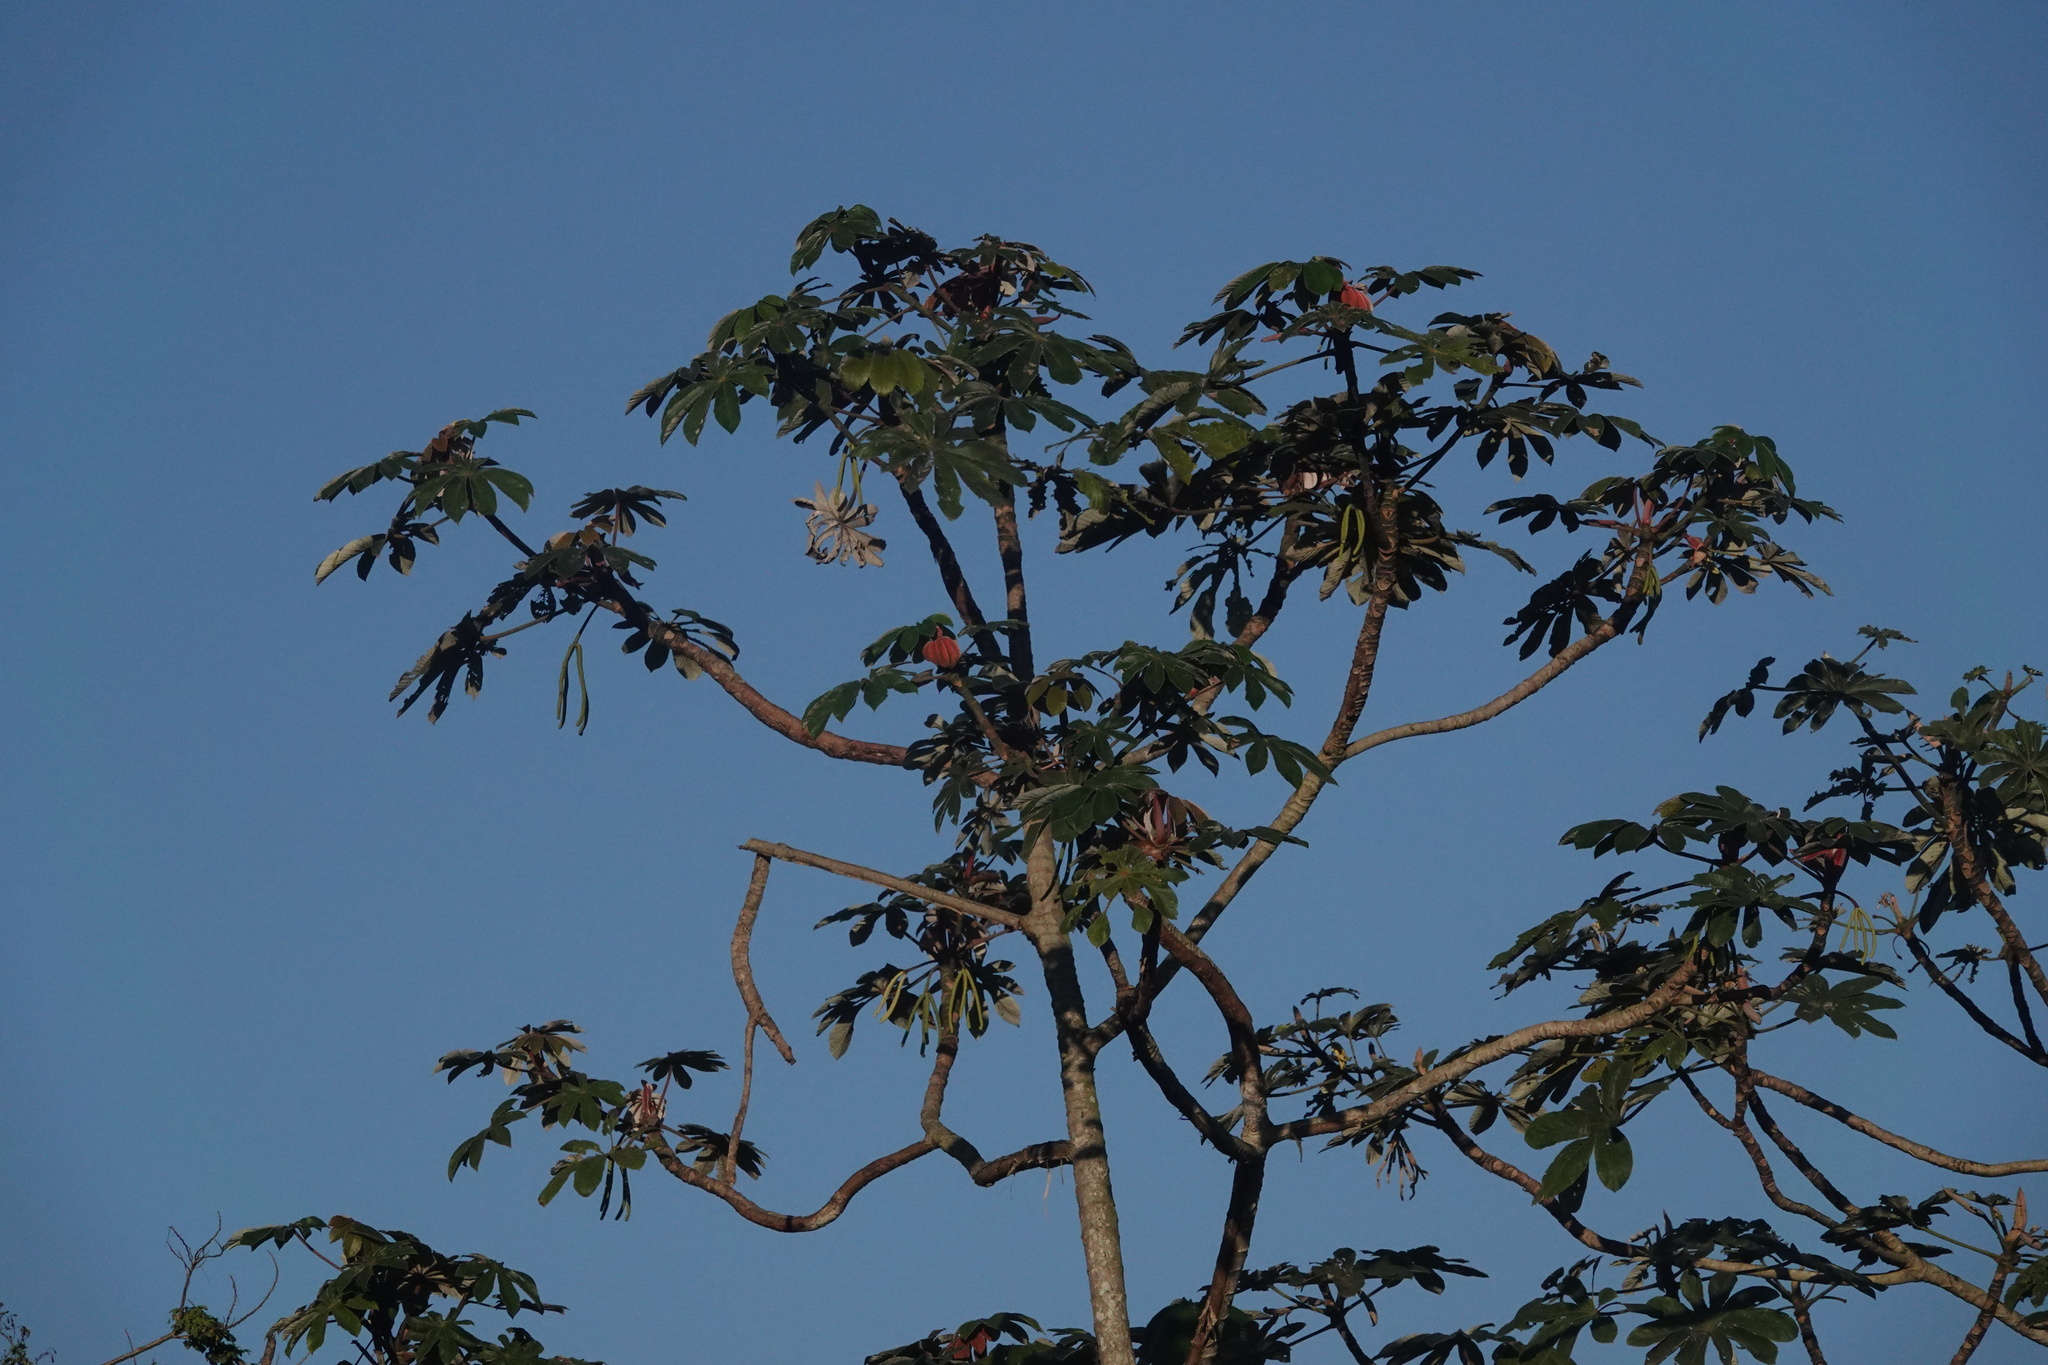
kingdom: Plantae
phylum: Tracheophyta
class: Magnoliopsida
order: Rosales
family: Urticaceae
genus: Cecropia
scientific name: Cecropia obtusifolia
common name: Trumpet tree
